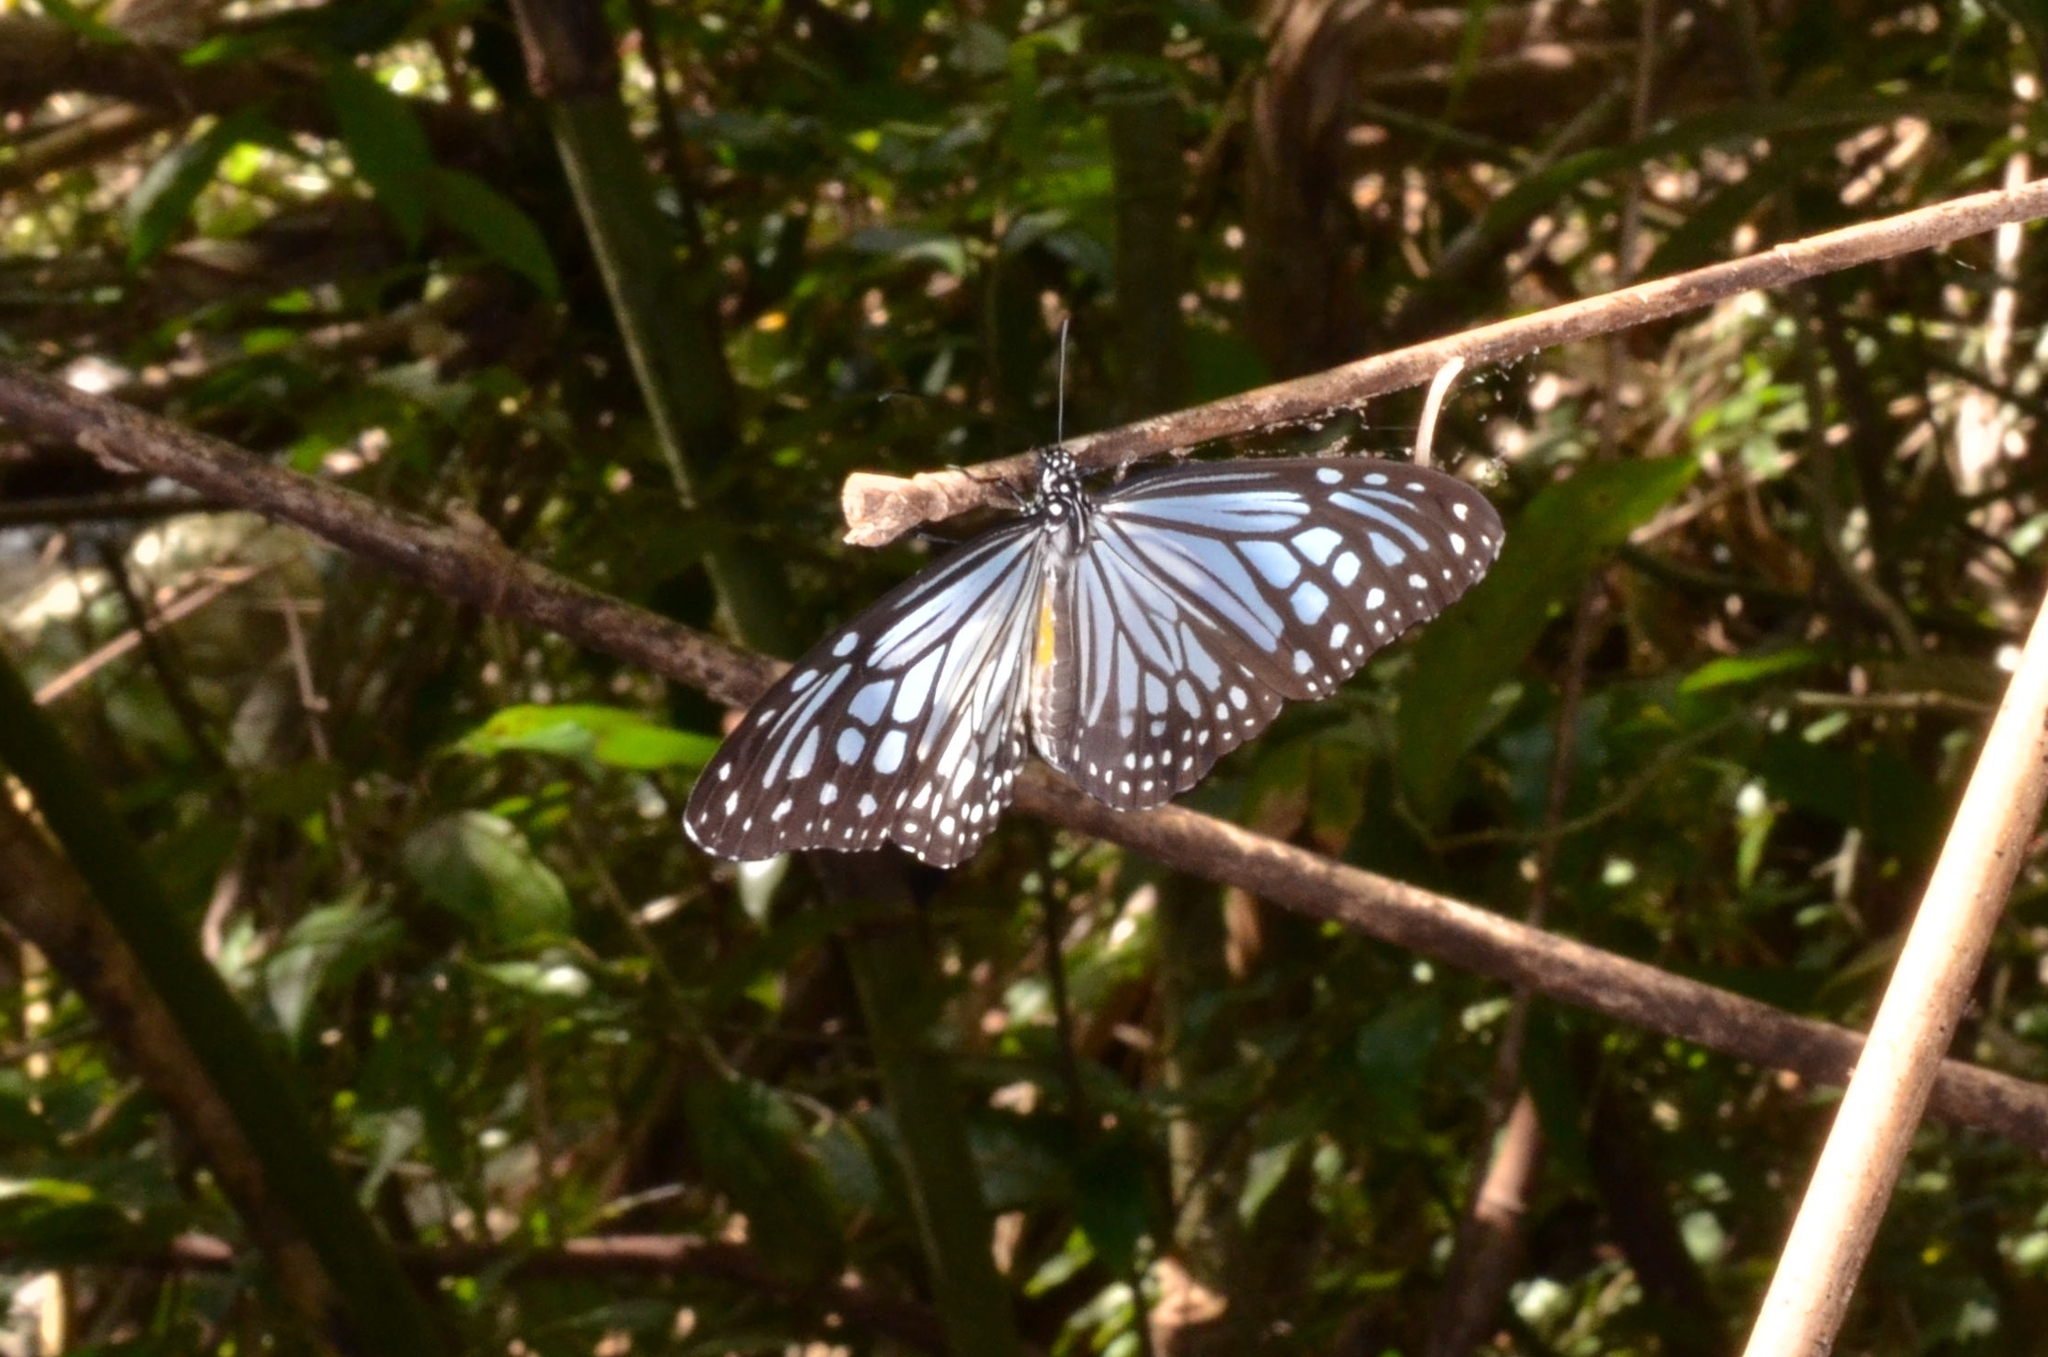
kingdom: Animalia
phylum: Arthropoda
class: Insecta
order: Lepidoptera
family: Nymphalidae
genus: Parantica
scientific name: Parantica aglea
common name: Glassy tiger
